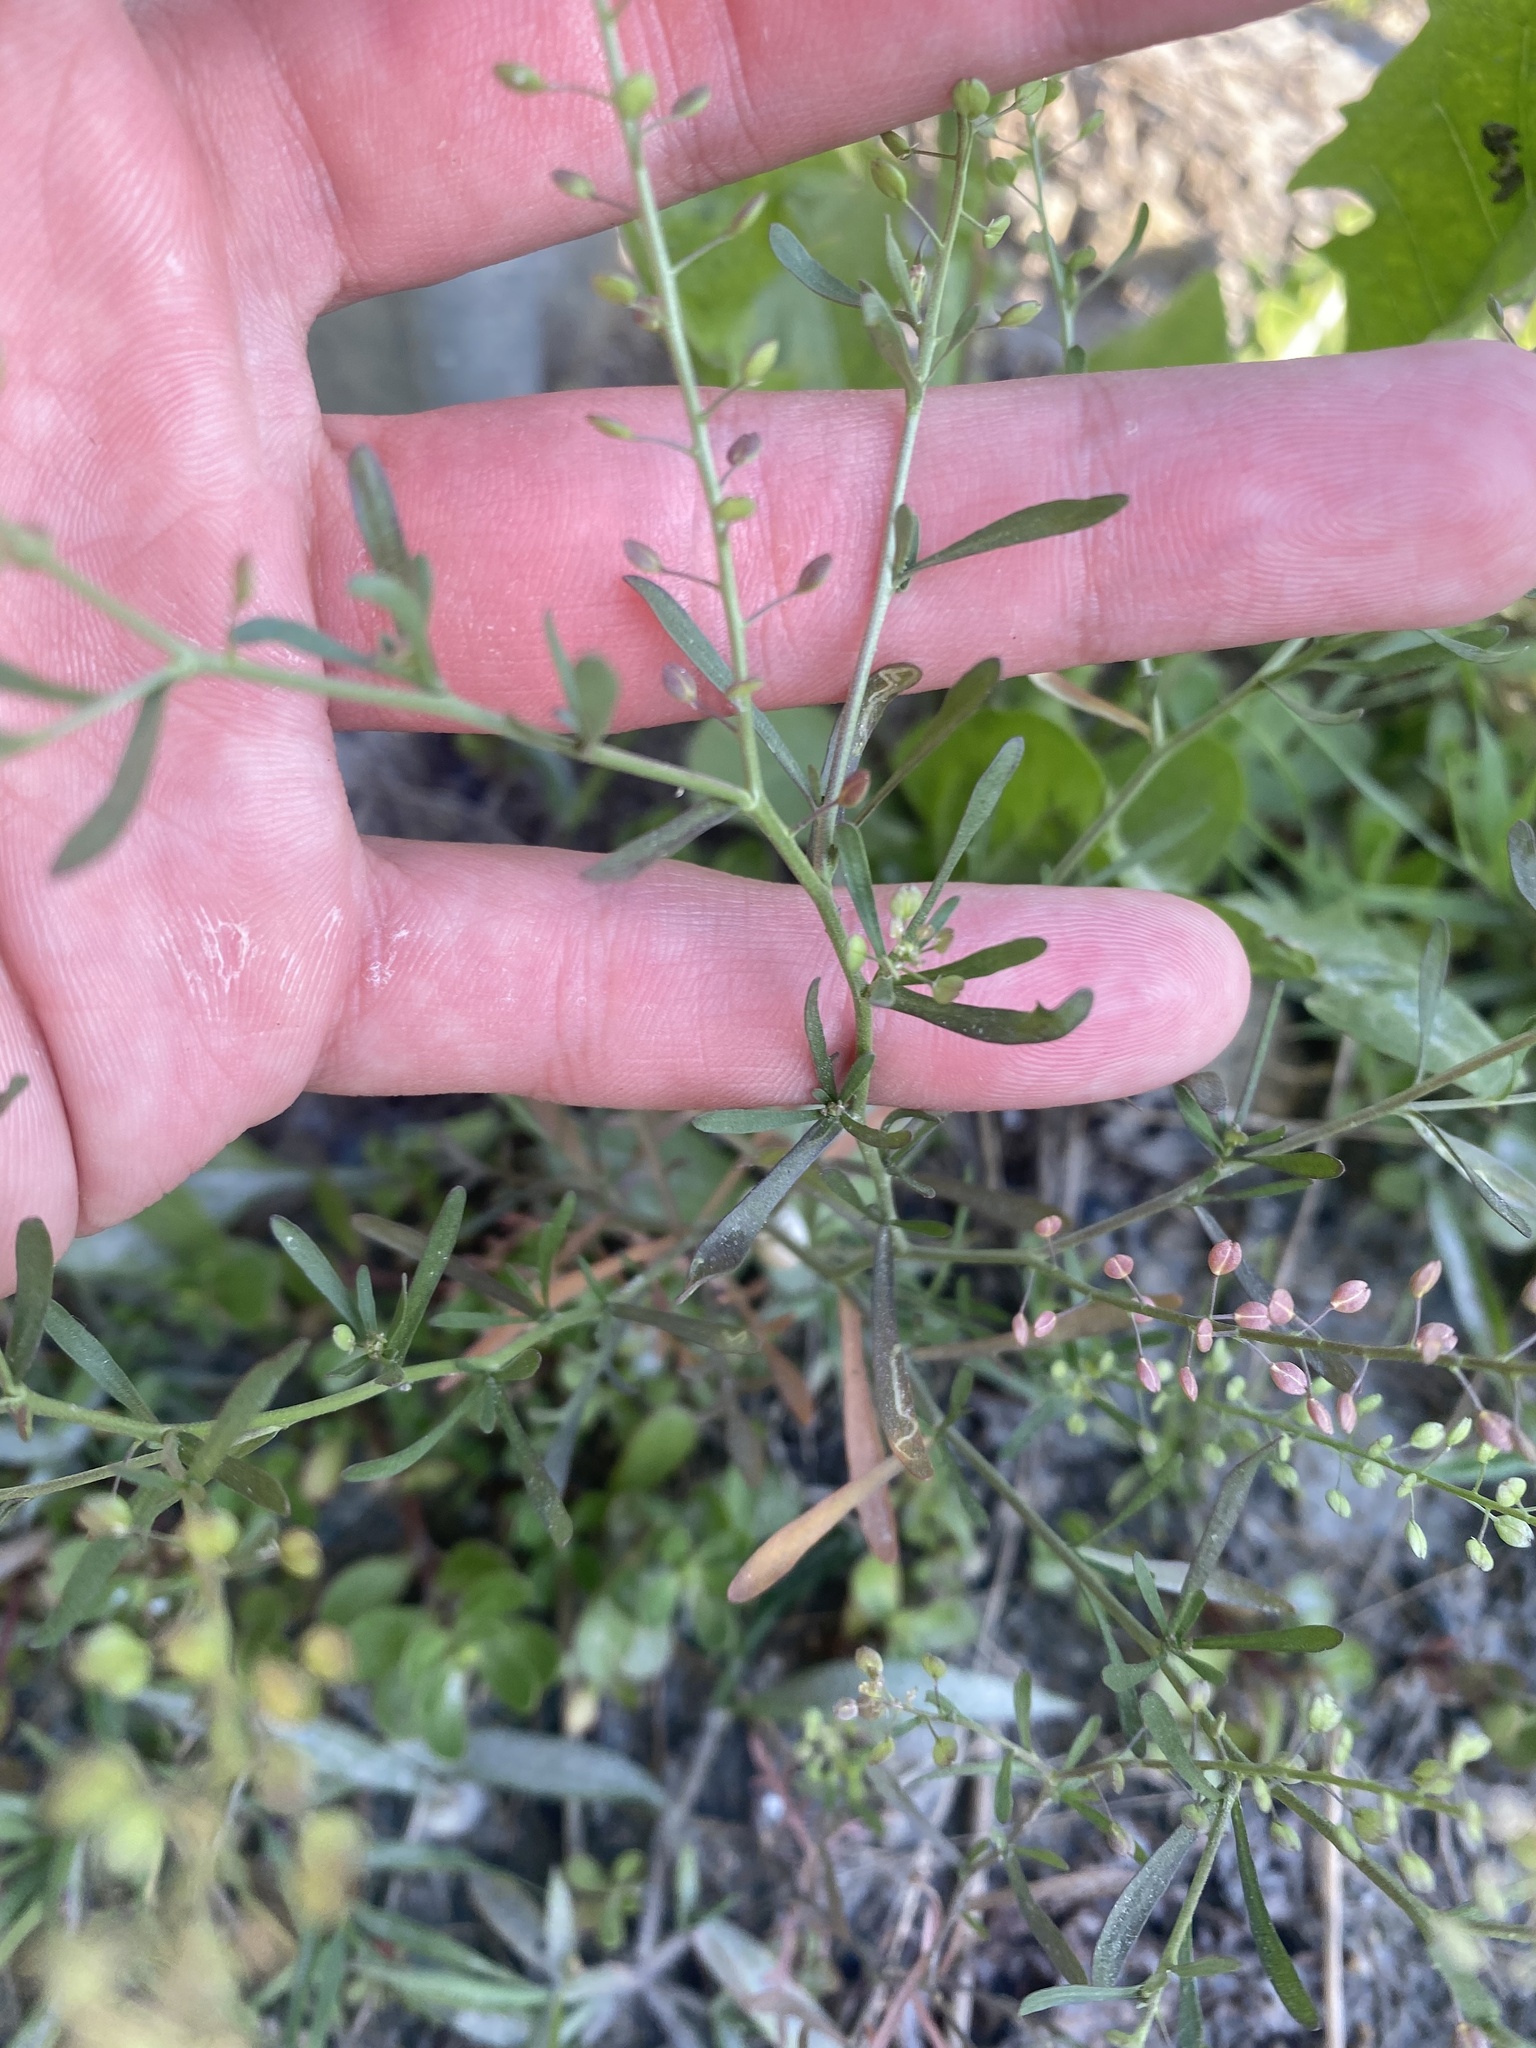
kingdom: Plantae
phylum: Tracheophyta
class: Magnoliopsida
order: Brassicales
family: Brassicaceae
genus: Lepidium
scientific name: Lepidium ruderale
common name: Narrow-leaved pepperwort
